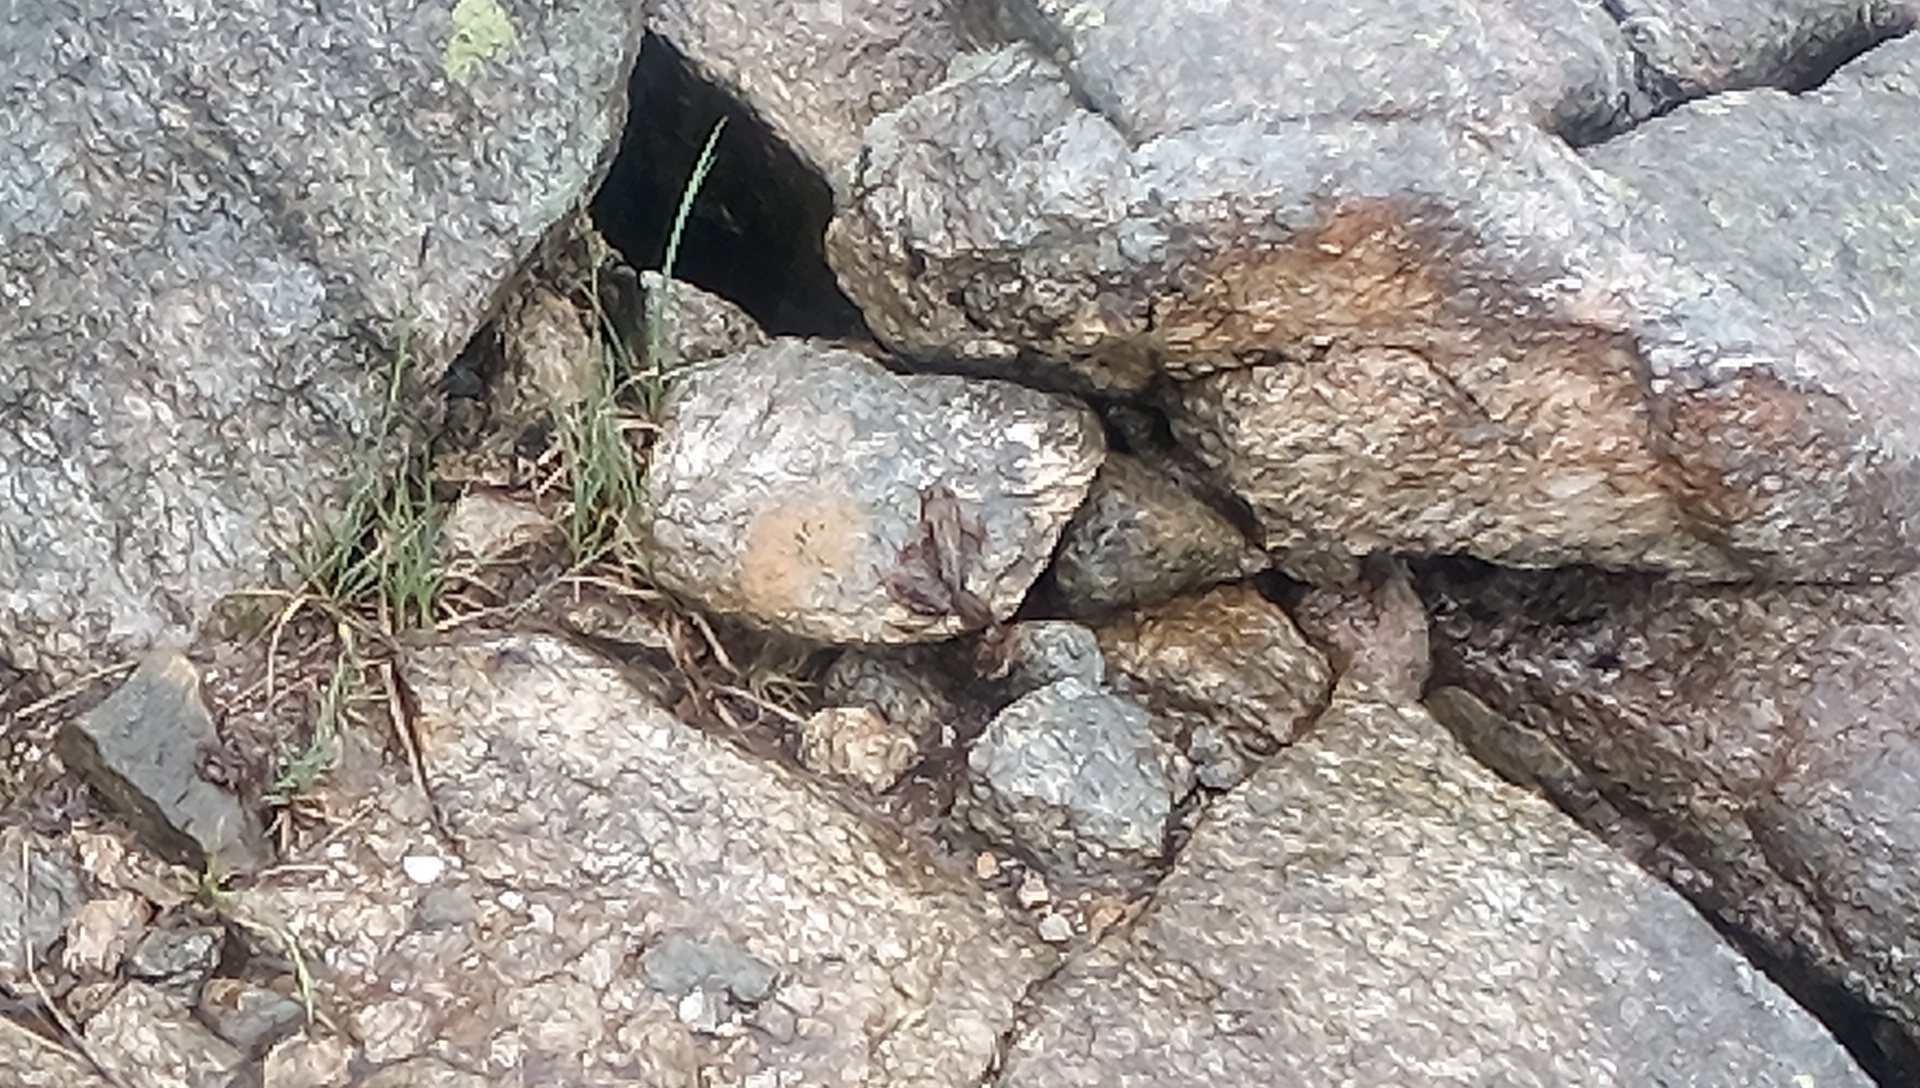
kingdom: Animalia
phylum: Chordata
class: Amphibia
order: Anura
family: Ranidae
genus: Rana
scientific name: Rana temporaria
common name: Common frog
